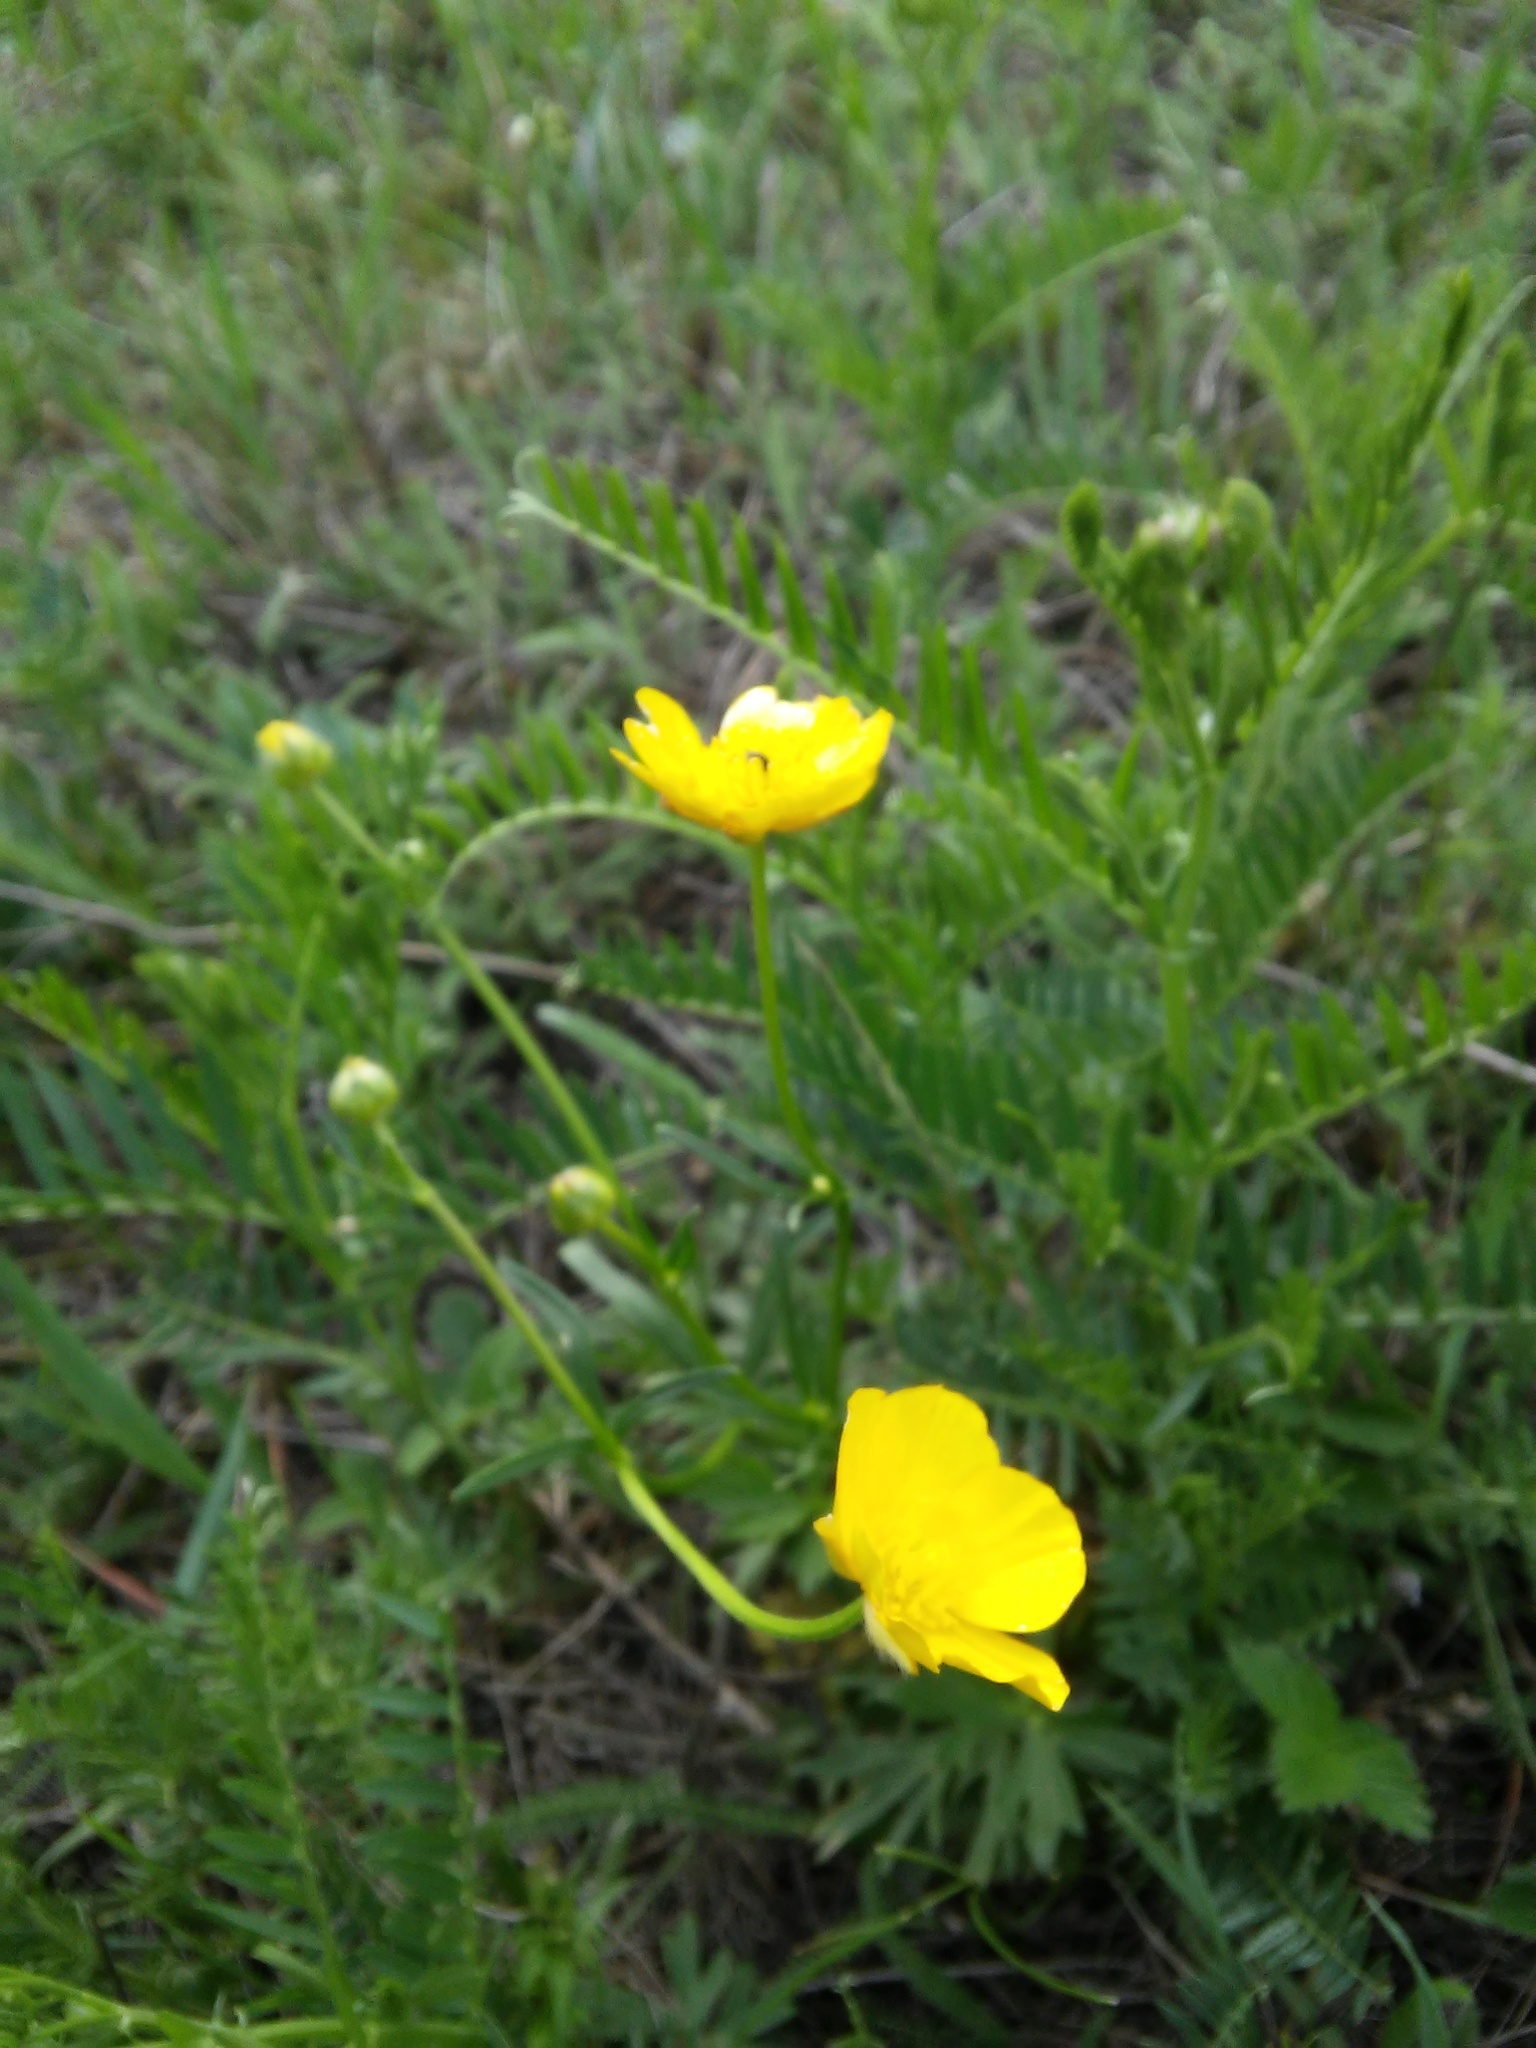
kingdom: Plantae
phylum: Tracheophyta
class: Magnoliopsida
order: Ranunculales
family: Ranunculaceae
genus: Ranunculus
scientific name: Ranunculus polyanthemos
